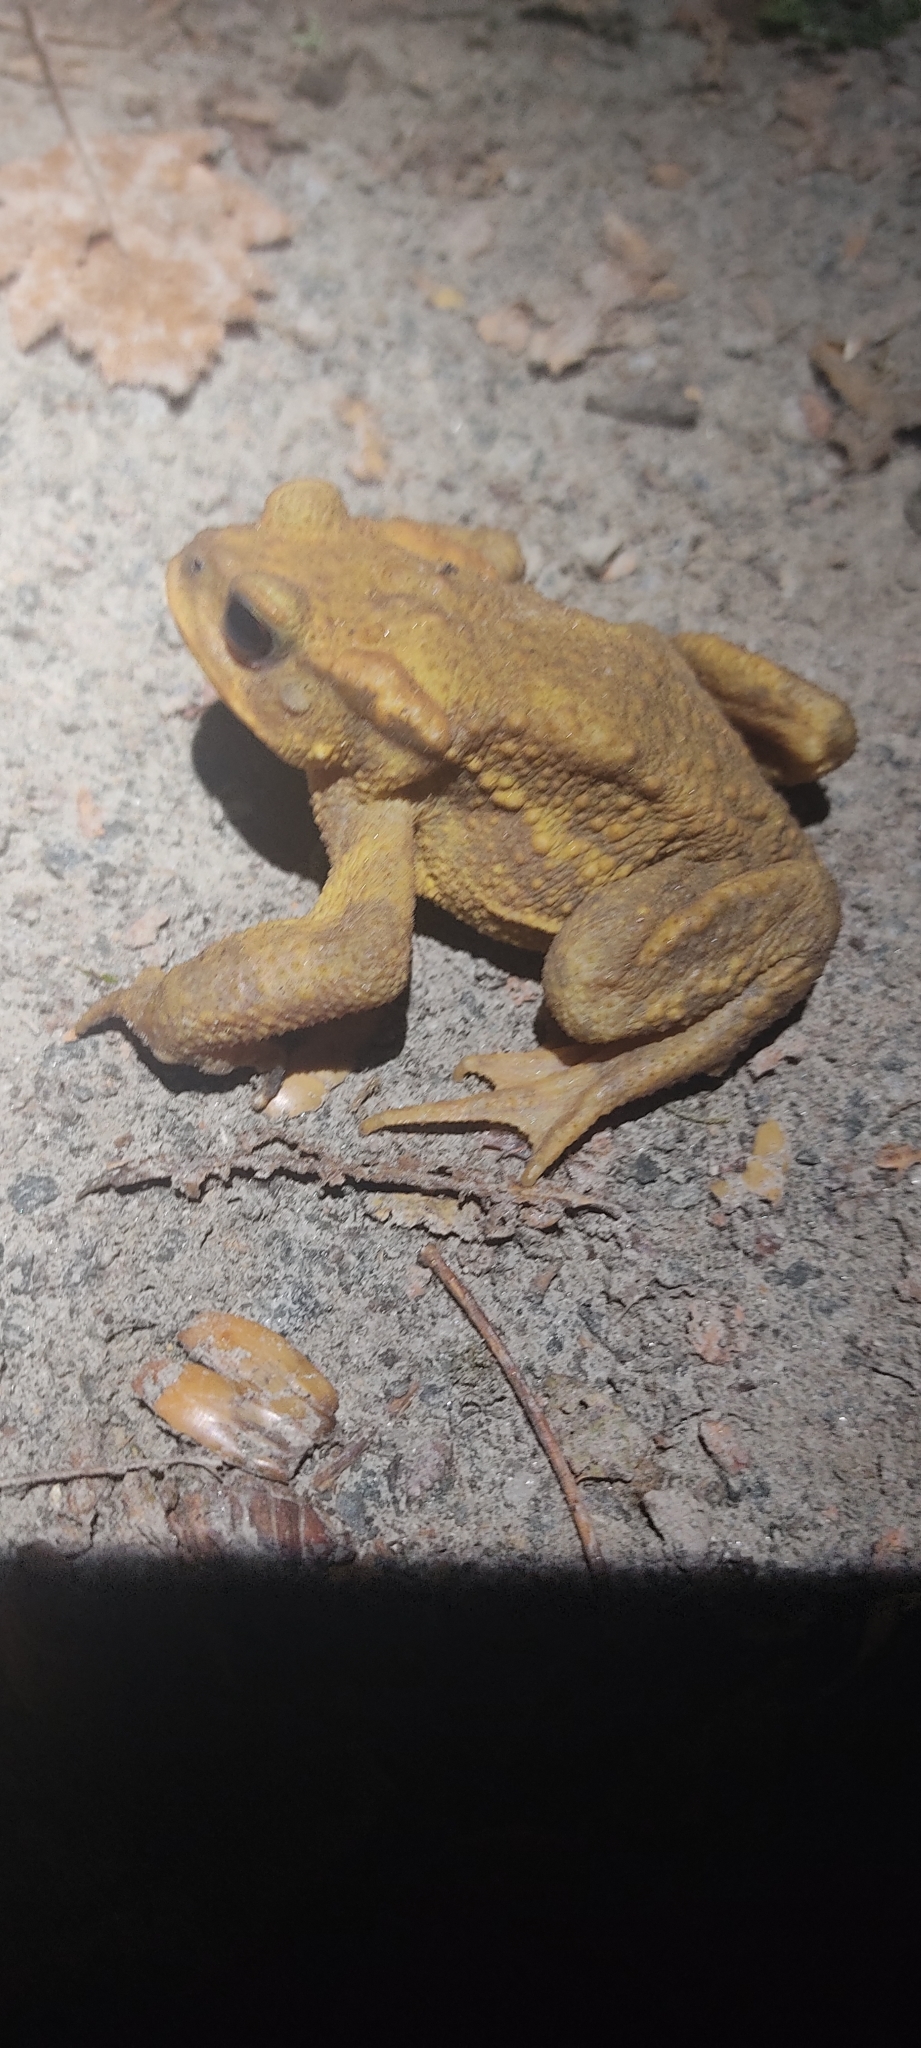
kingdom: Animalia
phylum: Chordata
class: Amphibia
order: Anura
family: Bufonidae
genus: Bufo
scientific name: Bufo spinosus
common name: Western common toad
